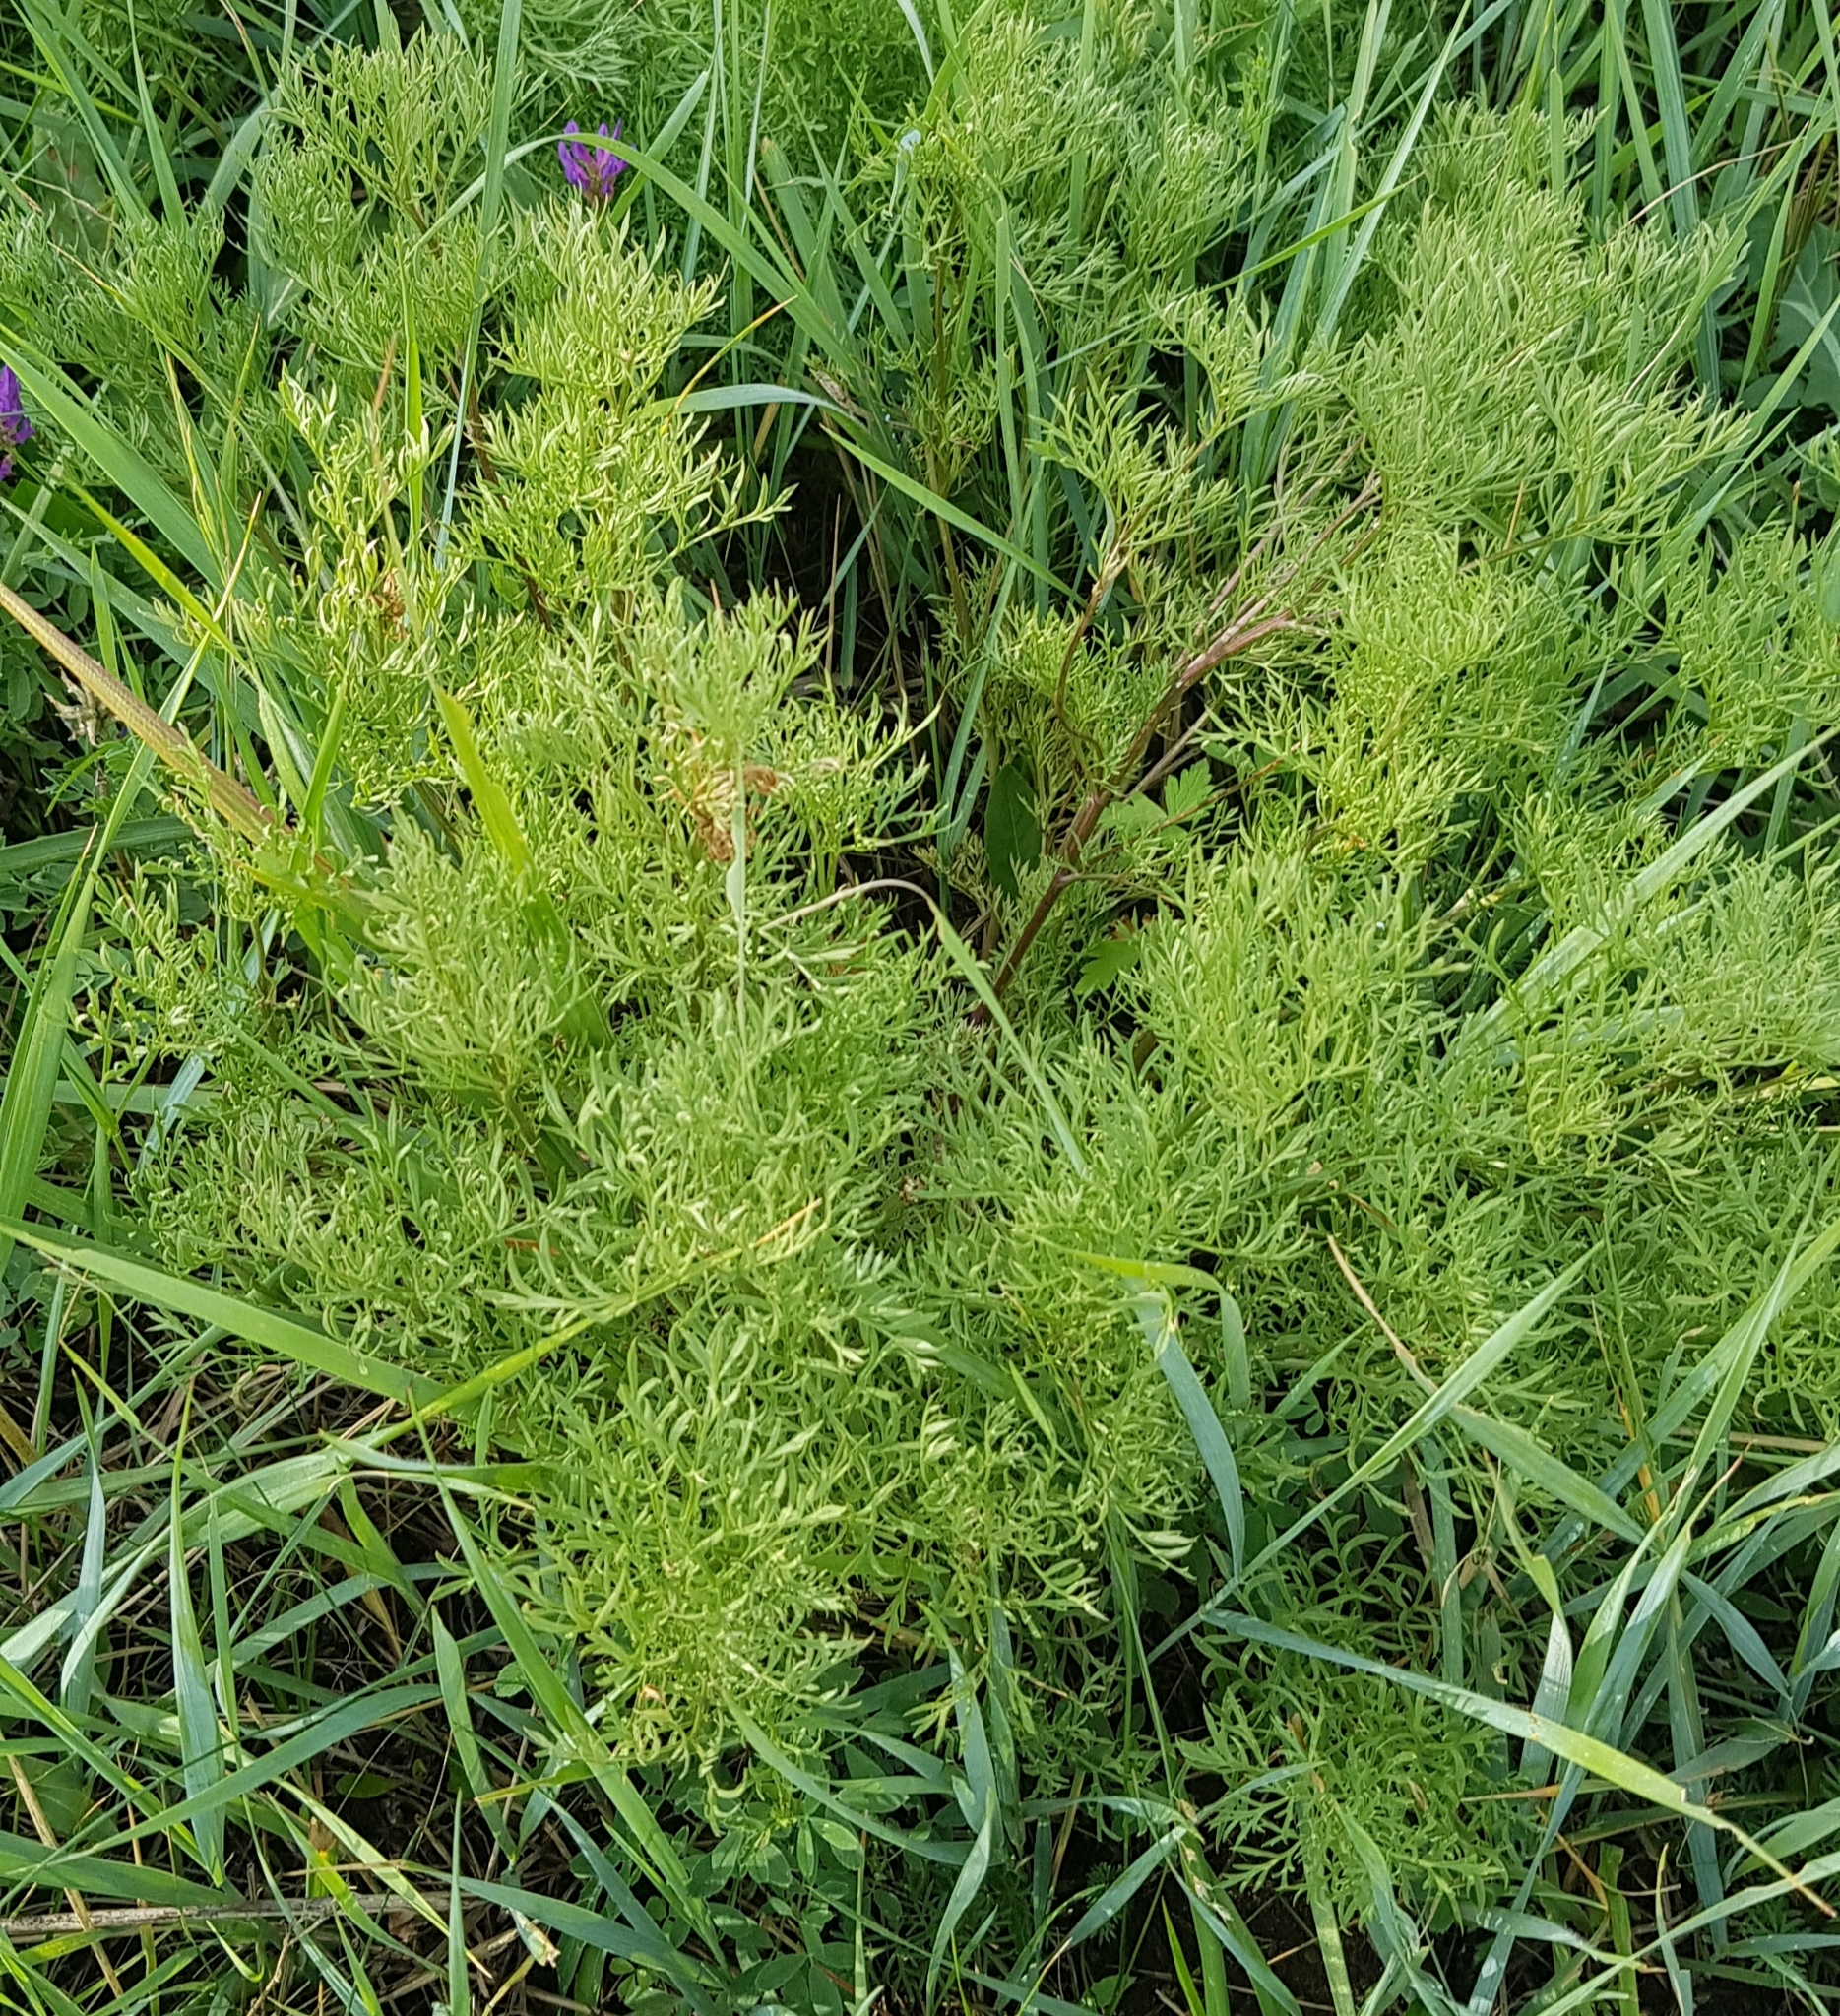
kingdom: Plantae
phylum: Tracheophyta
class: Magnoliopsida
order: Ranunculales
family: Ranunculaceae
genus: Adonis
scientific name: Adonis mongolica
